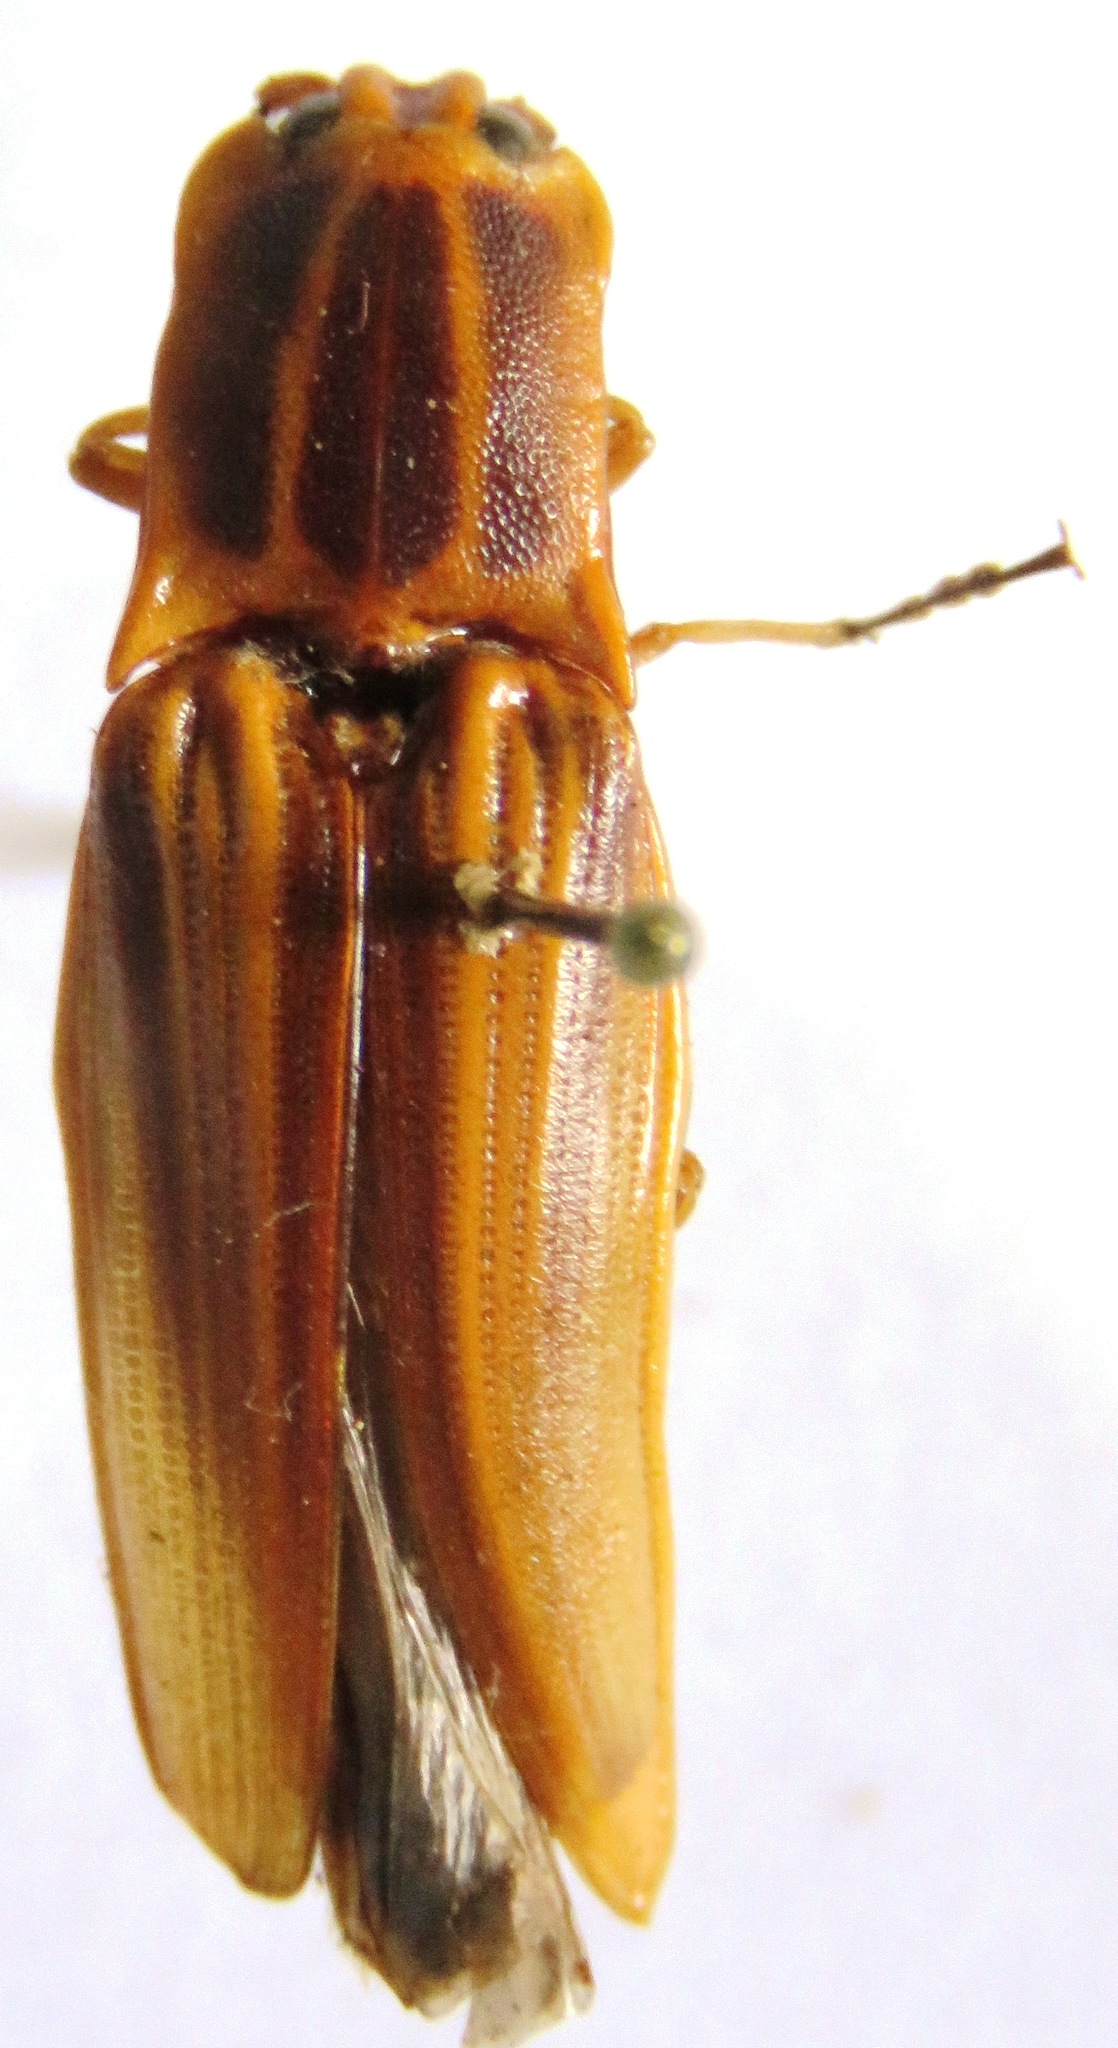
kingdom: Animalia
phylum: Arthropoda
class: Insecta
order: Coleoptera
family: Elateridae
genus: Semiotus
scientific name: Semiotus ligneus
